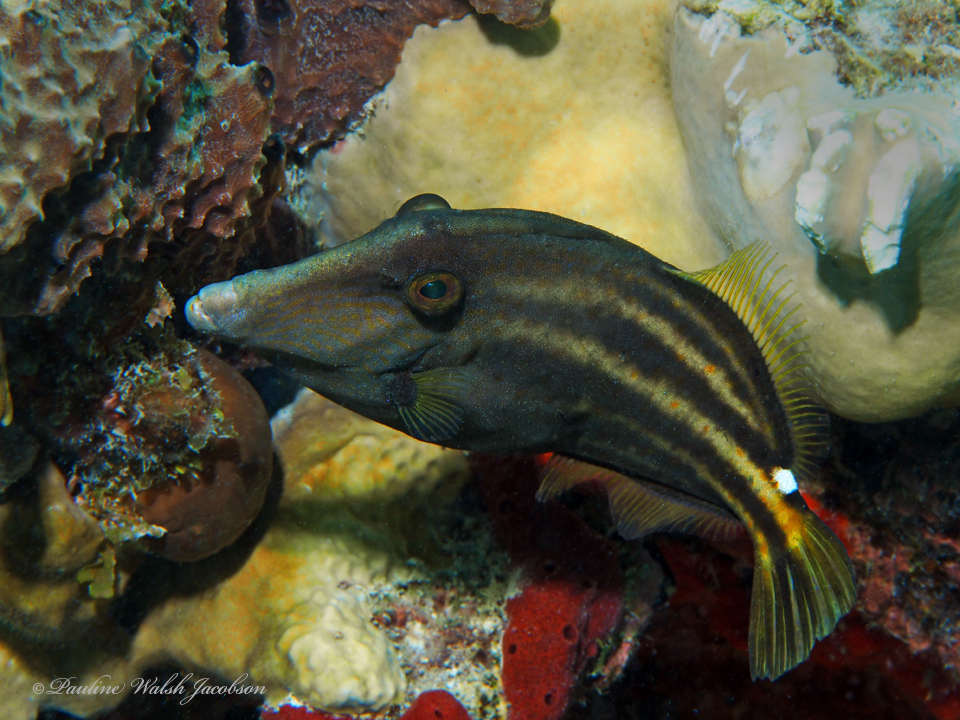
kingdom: Animalia
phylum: Chordata
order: Tetraodontiformes
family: Monacanthidae
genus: Cantherhines
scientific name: Cantherhines pullus
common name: Orangespotted filefish
